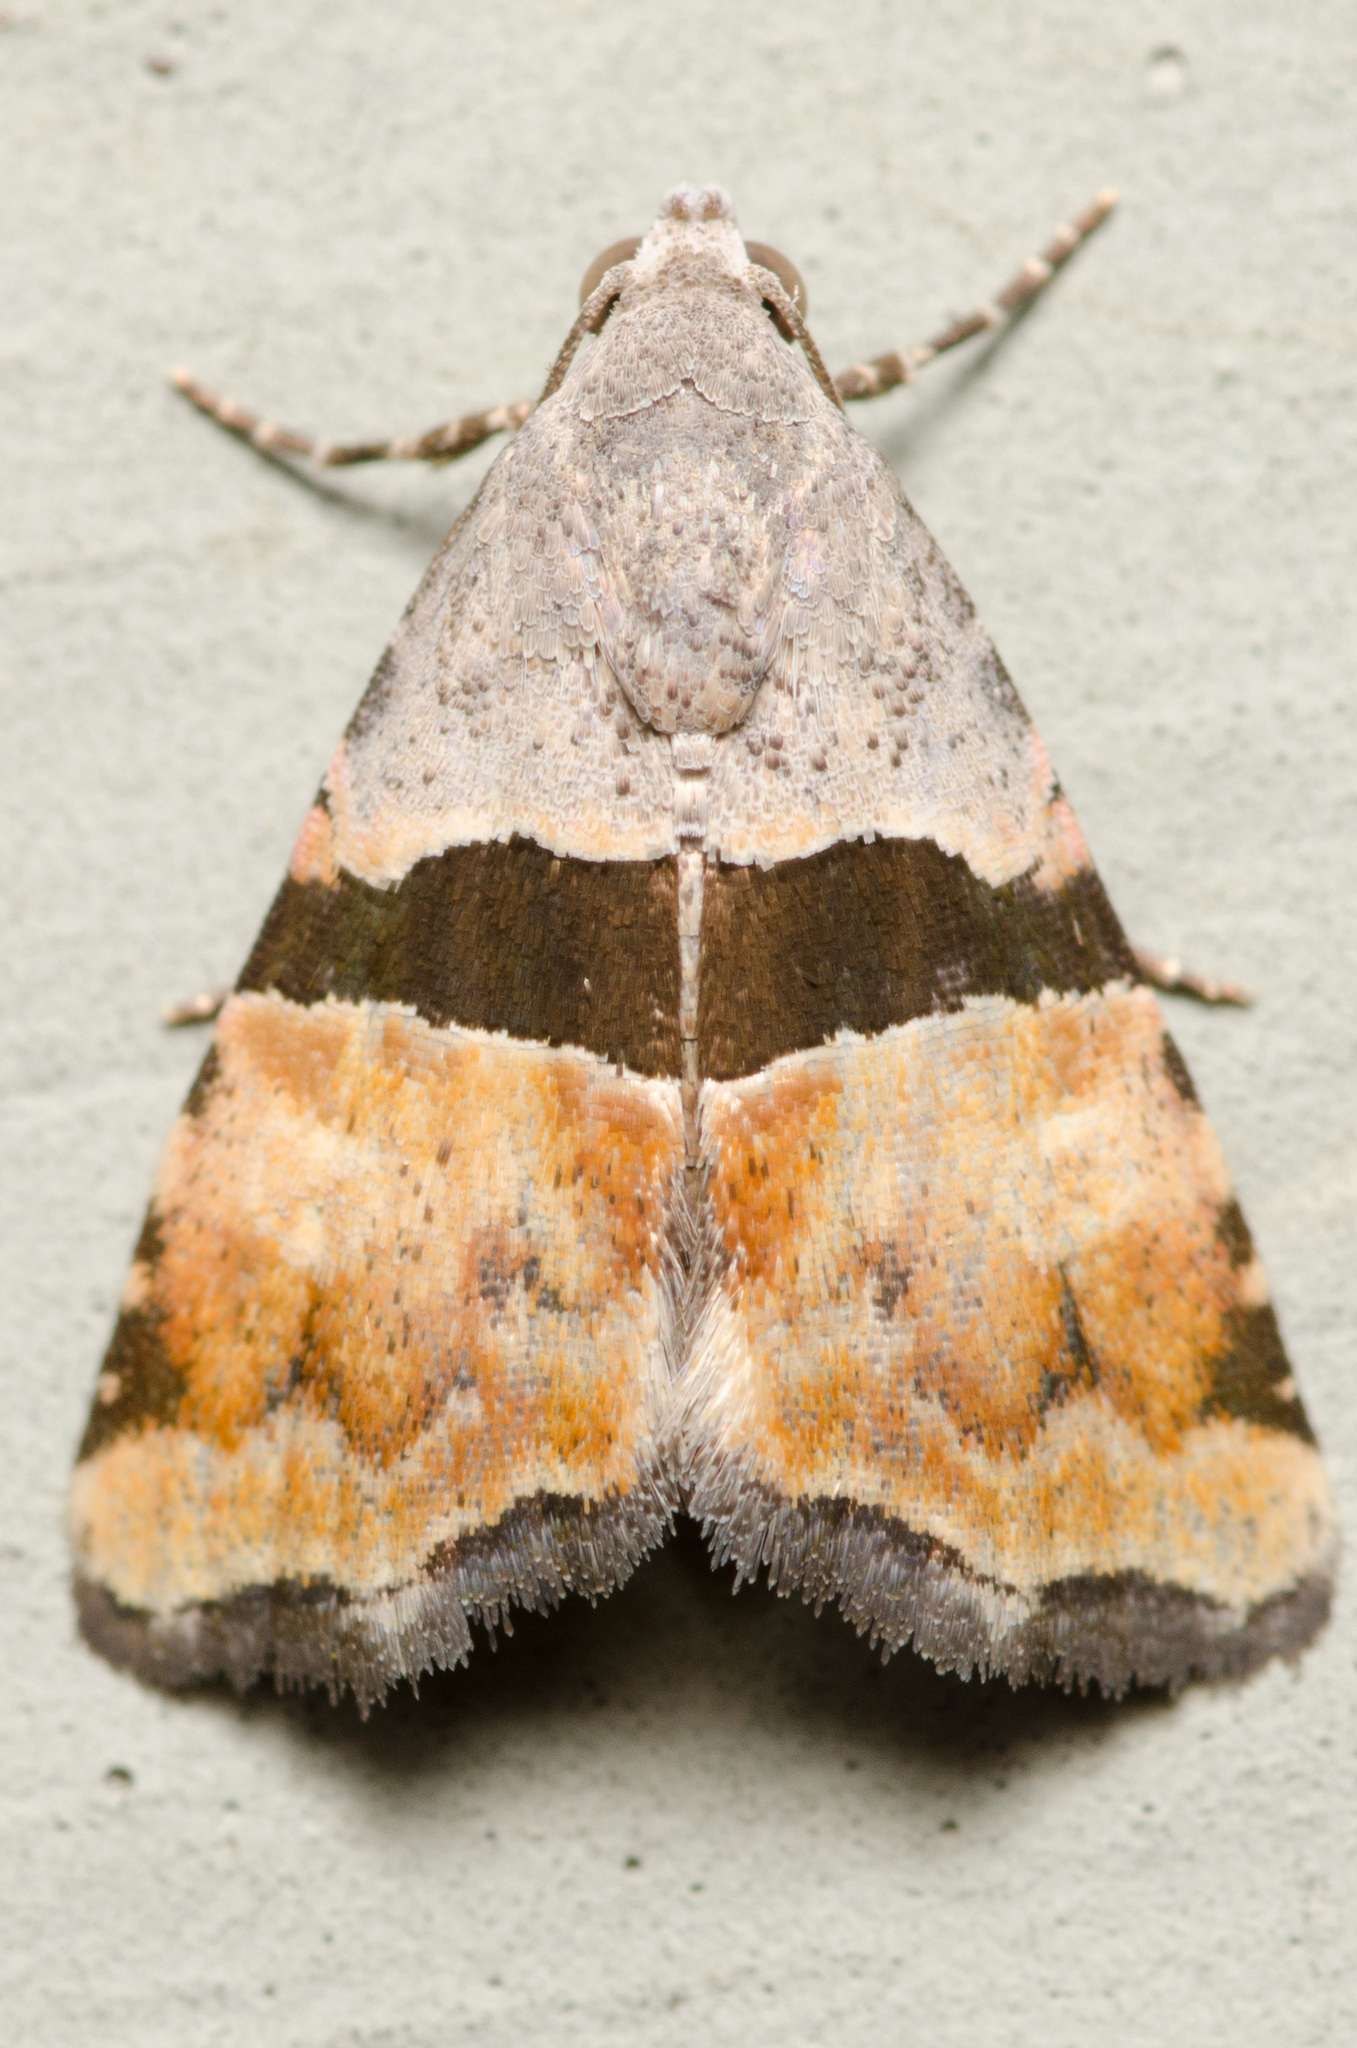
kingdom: Animalia
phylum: Arthropoda
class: Insecta
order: Lepidoptera
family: Noctuidae
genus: Cobubatha
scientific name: Cobubatha lixiva
